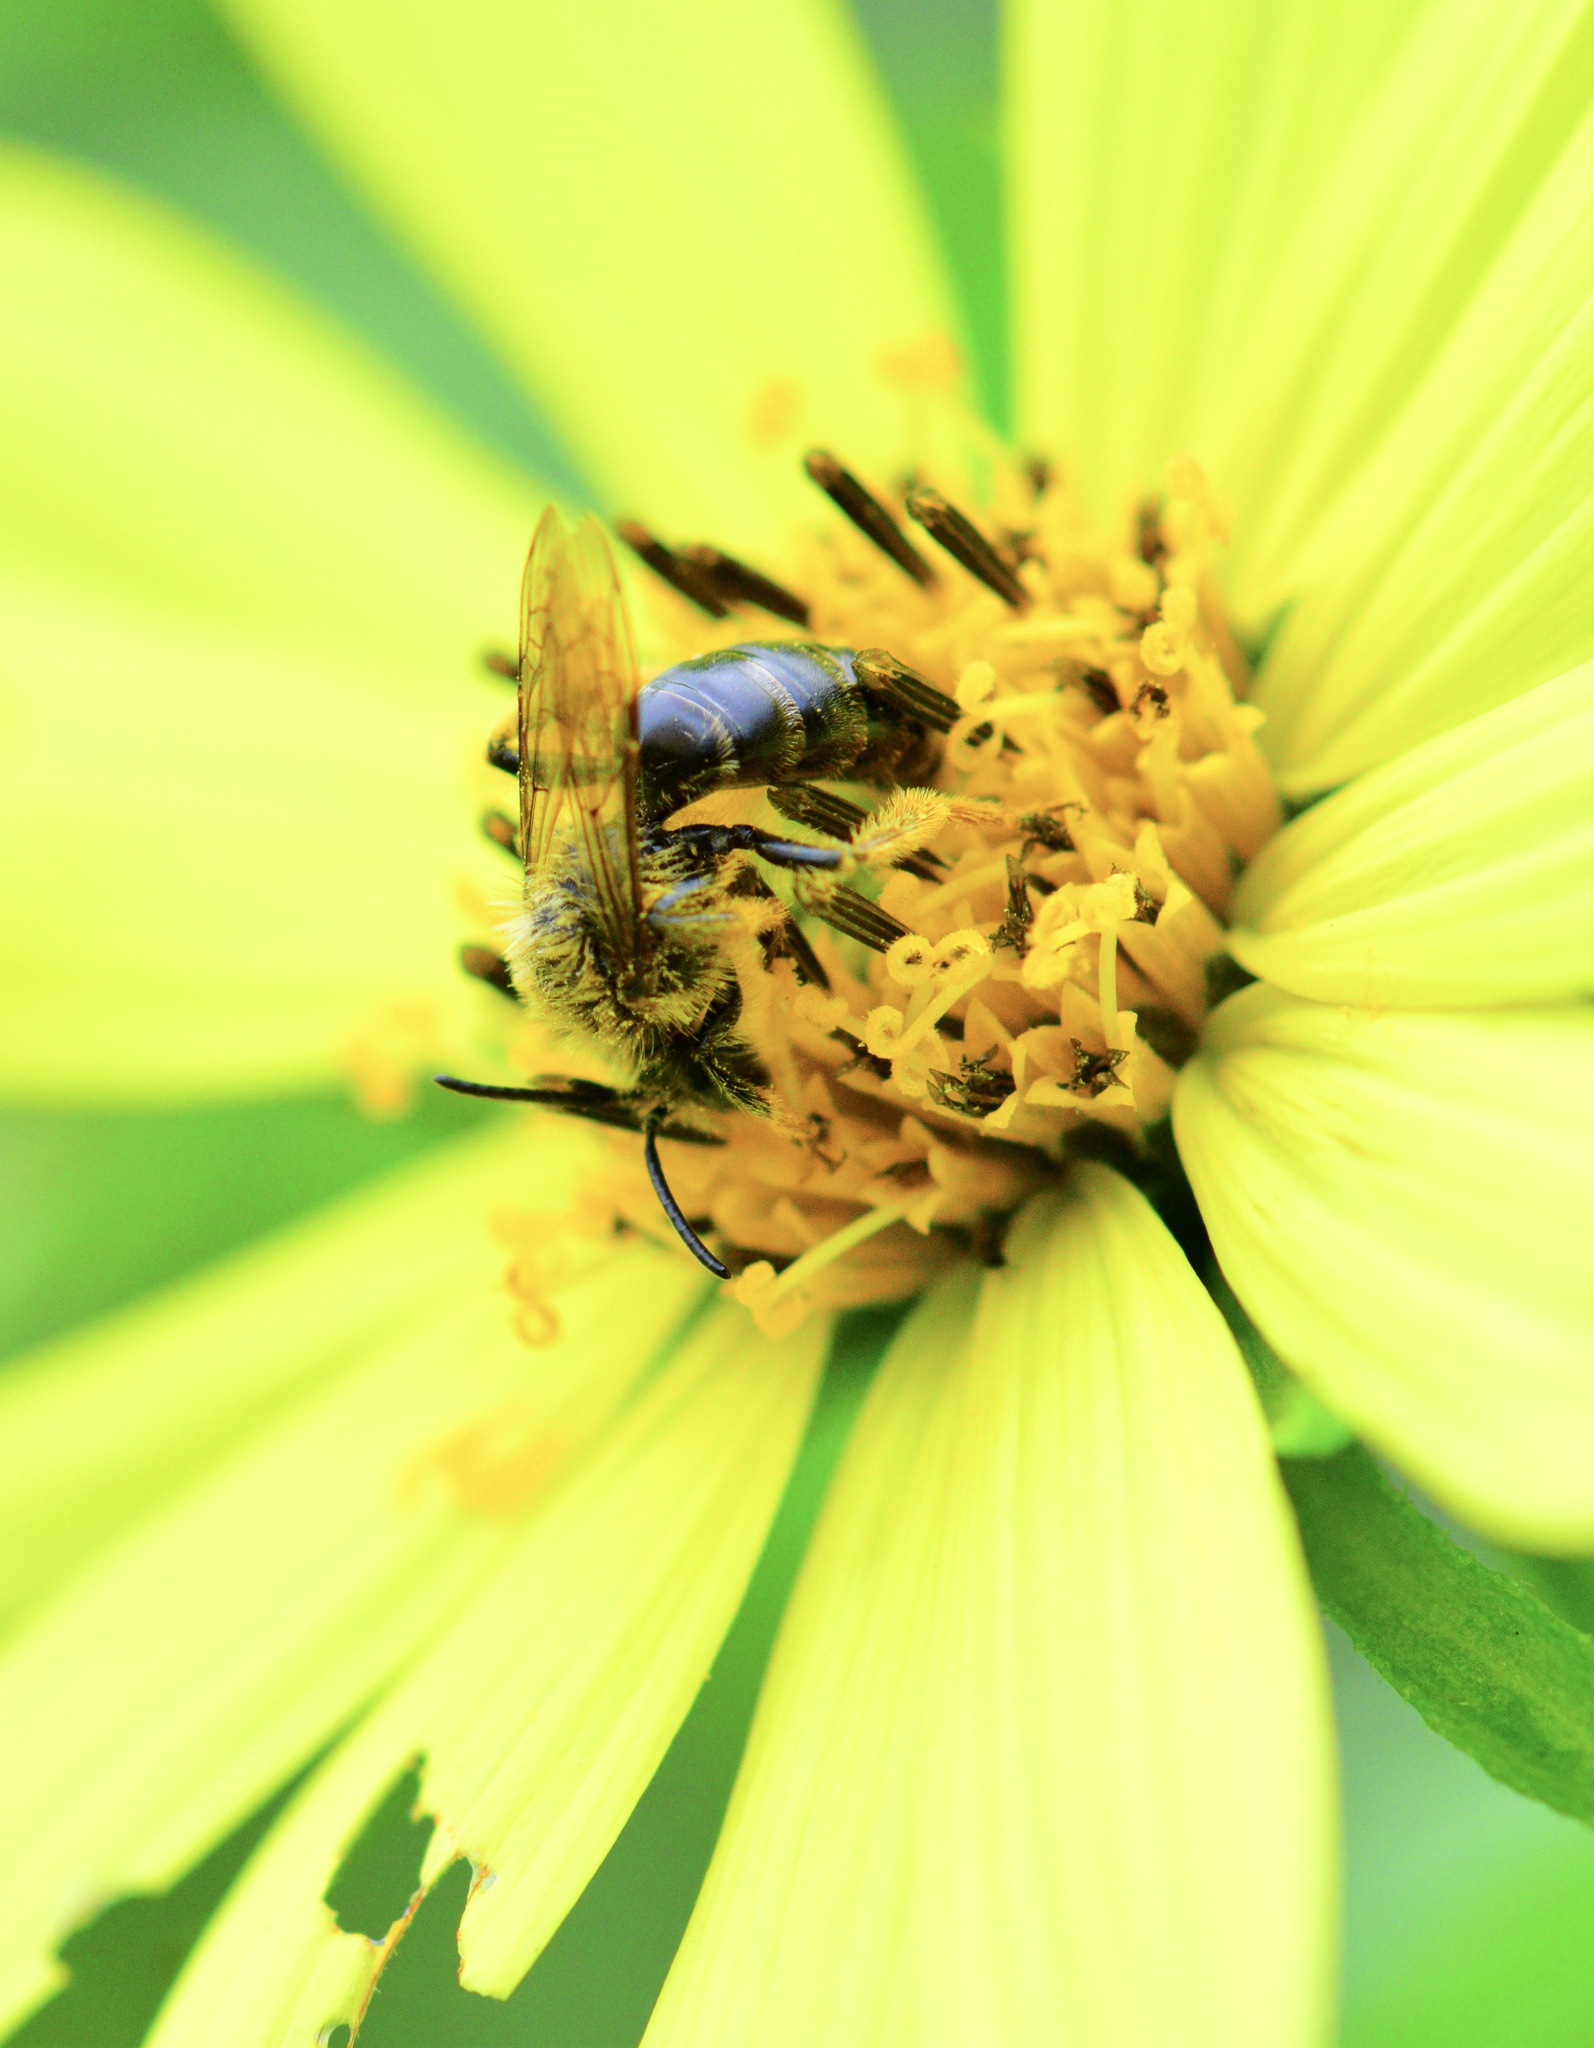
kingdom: Animalia
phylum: Arthropoda
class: Insecta
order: Hymenoptera
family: Andrenidae
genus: Andrena
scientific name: Andrena helianthi
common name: Sunflower mining bee
